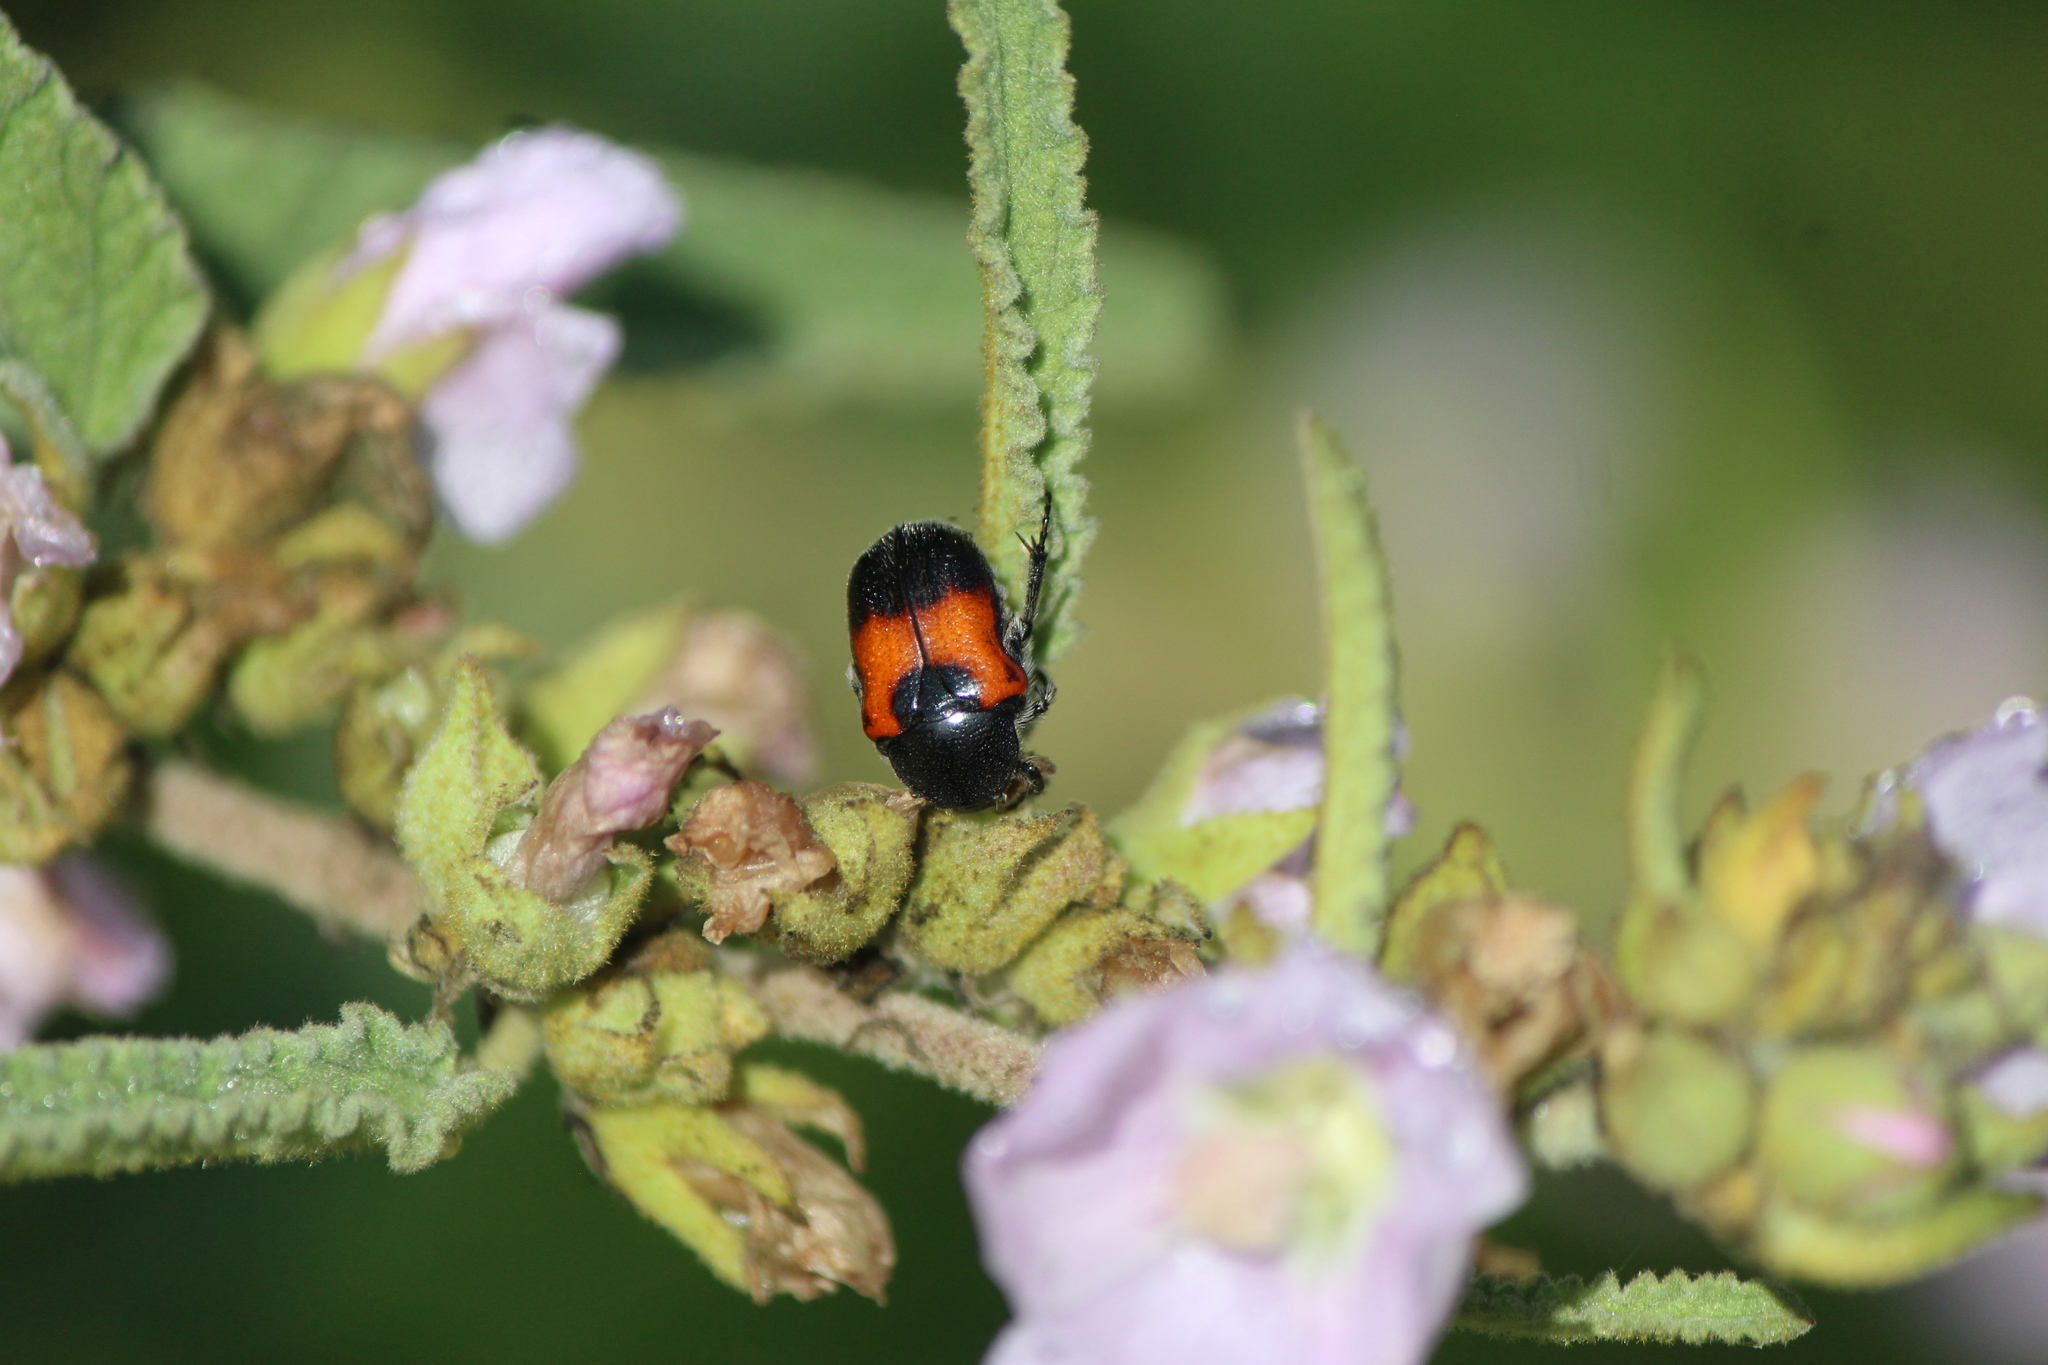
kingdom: Animalia
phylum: Arthropoda
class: Insecta
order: Coleoptera
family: Scarabaeidae
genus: Euphoria
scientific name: Euphoria dimidiata
